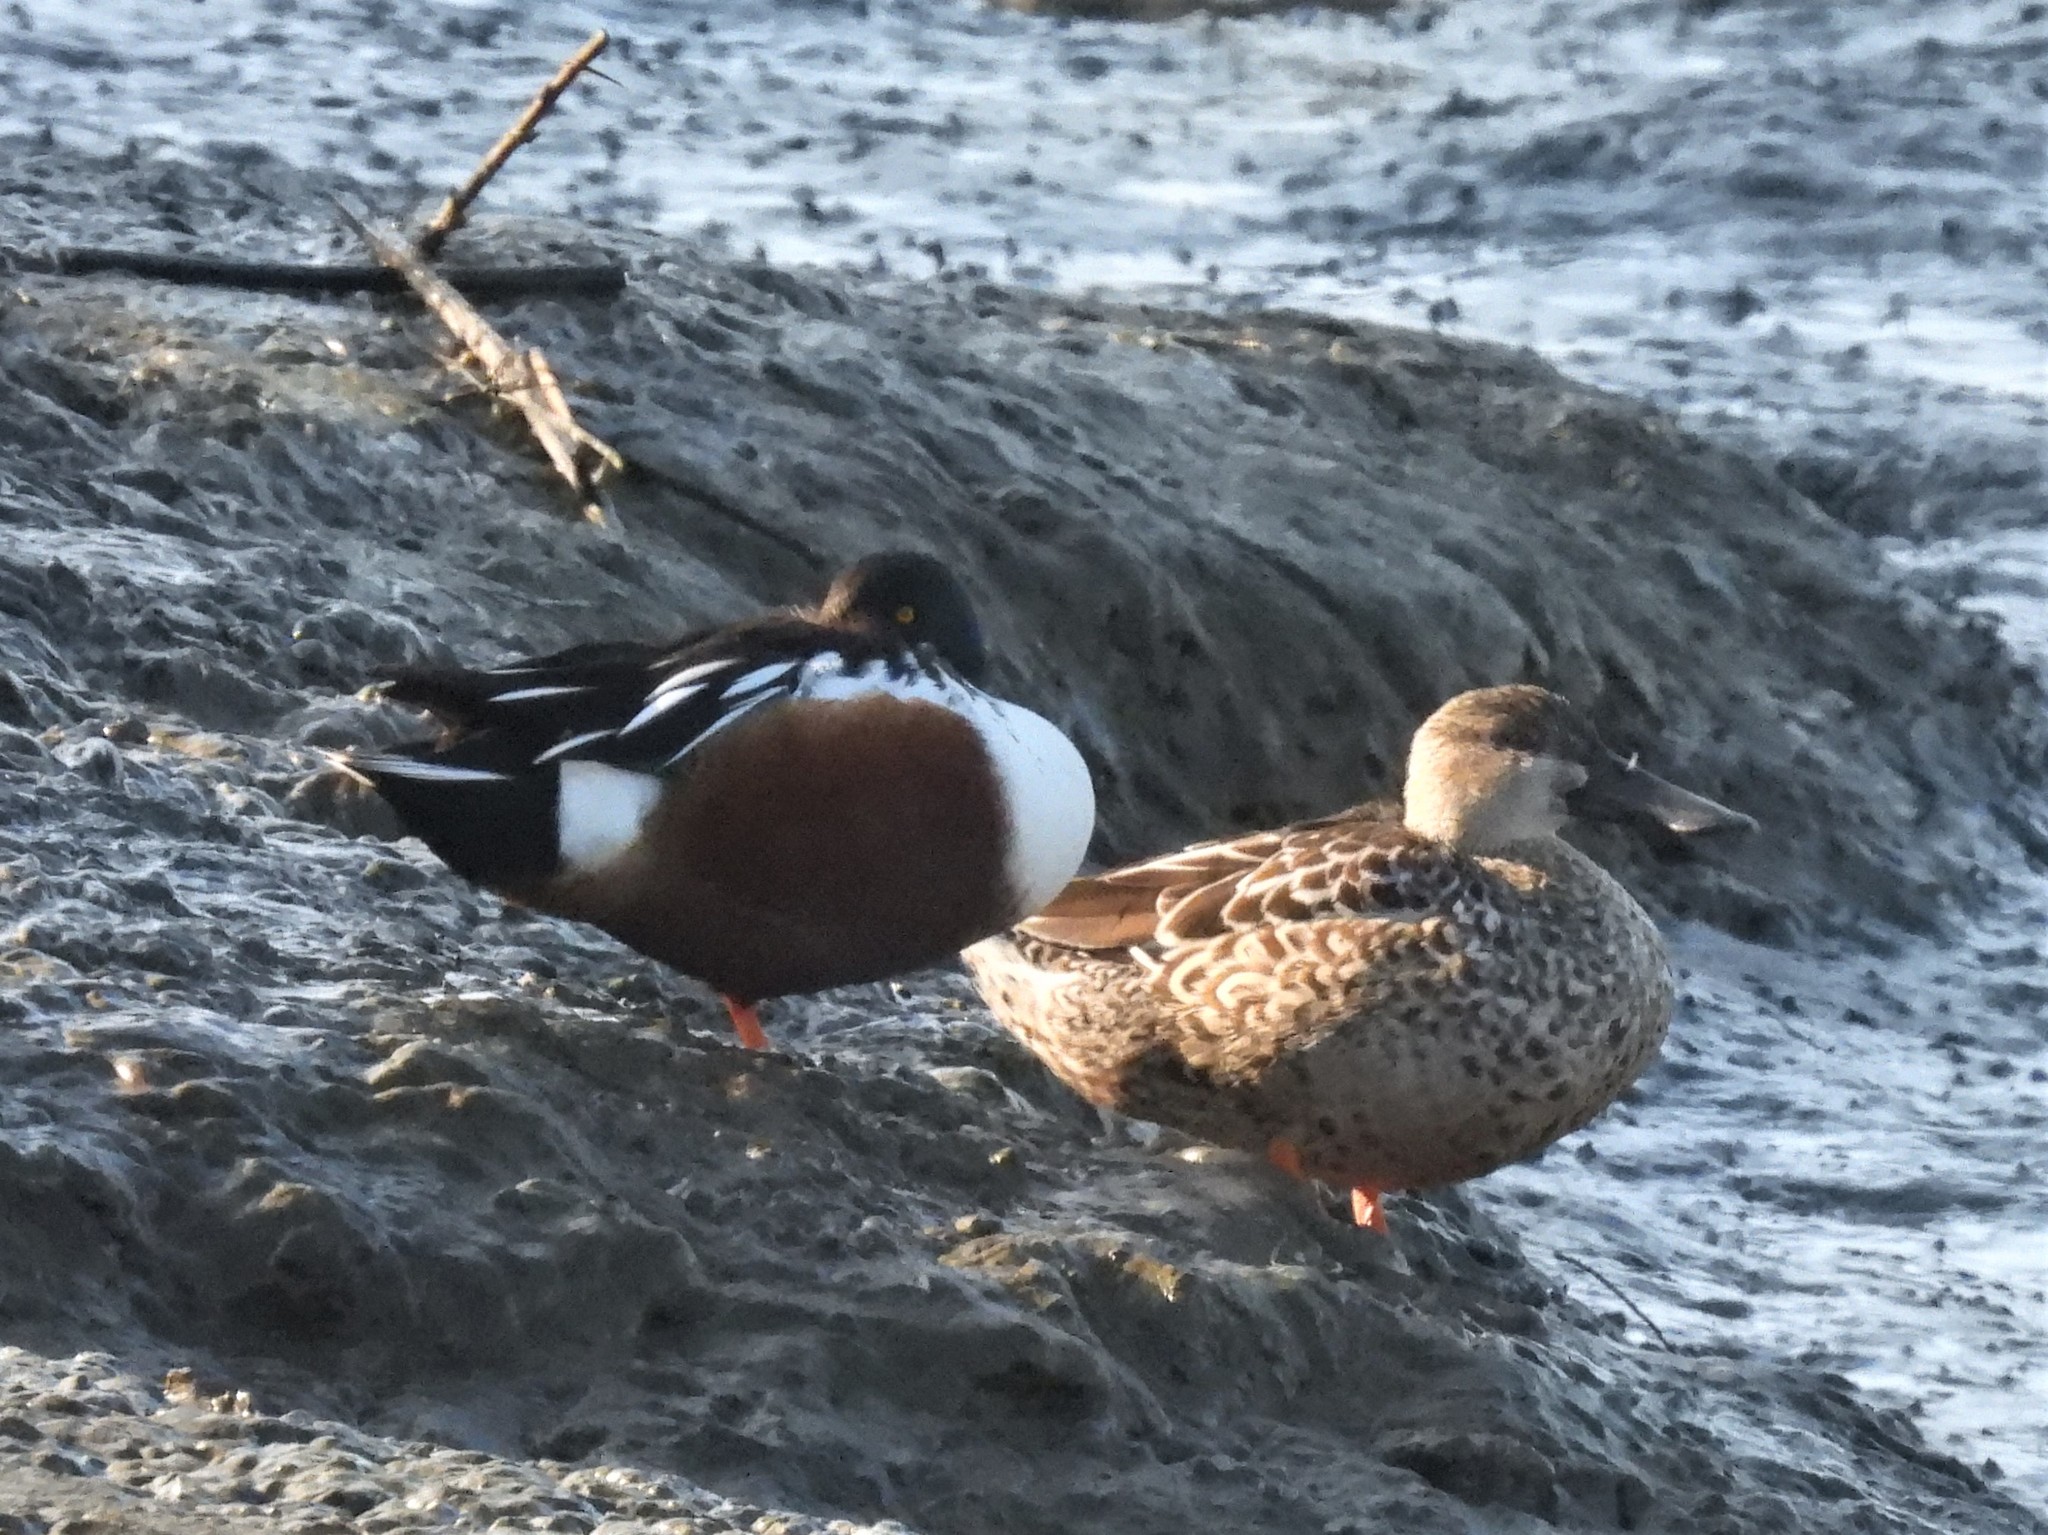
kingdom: Animalia
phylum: Chordata
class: Aves
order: Anseriformes
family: Anatidae
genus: Spatula
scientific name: Spatula clypeata
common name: Northern shoveler
